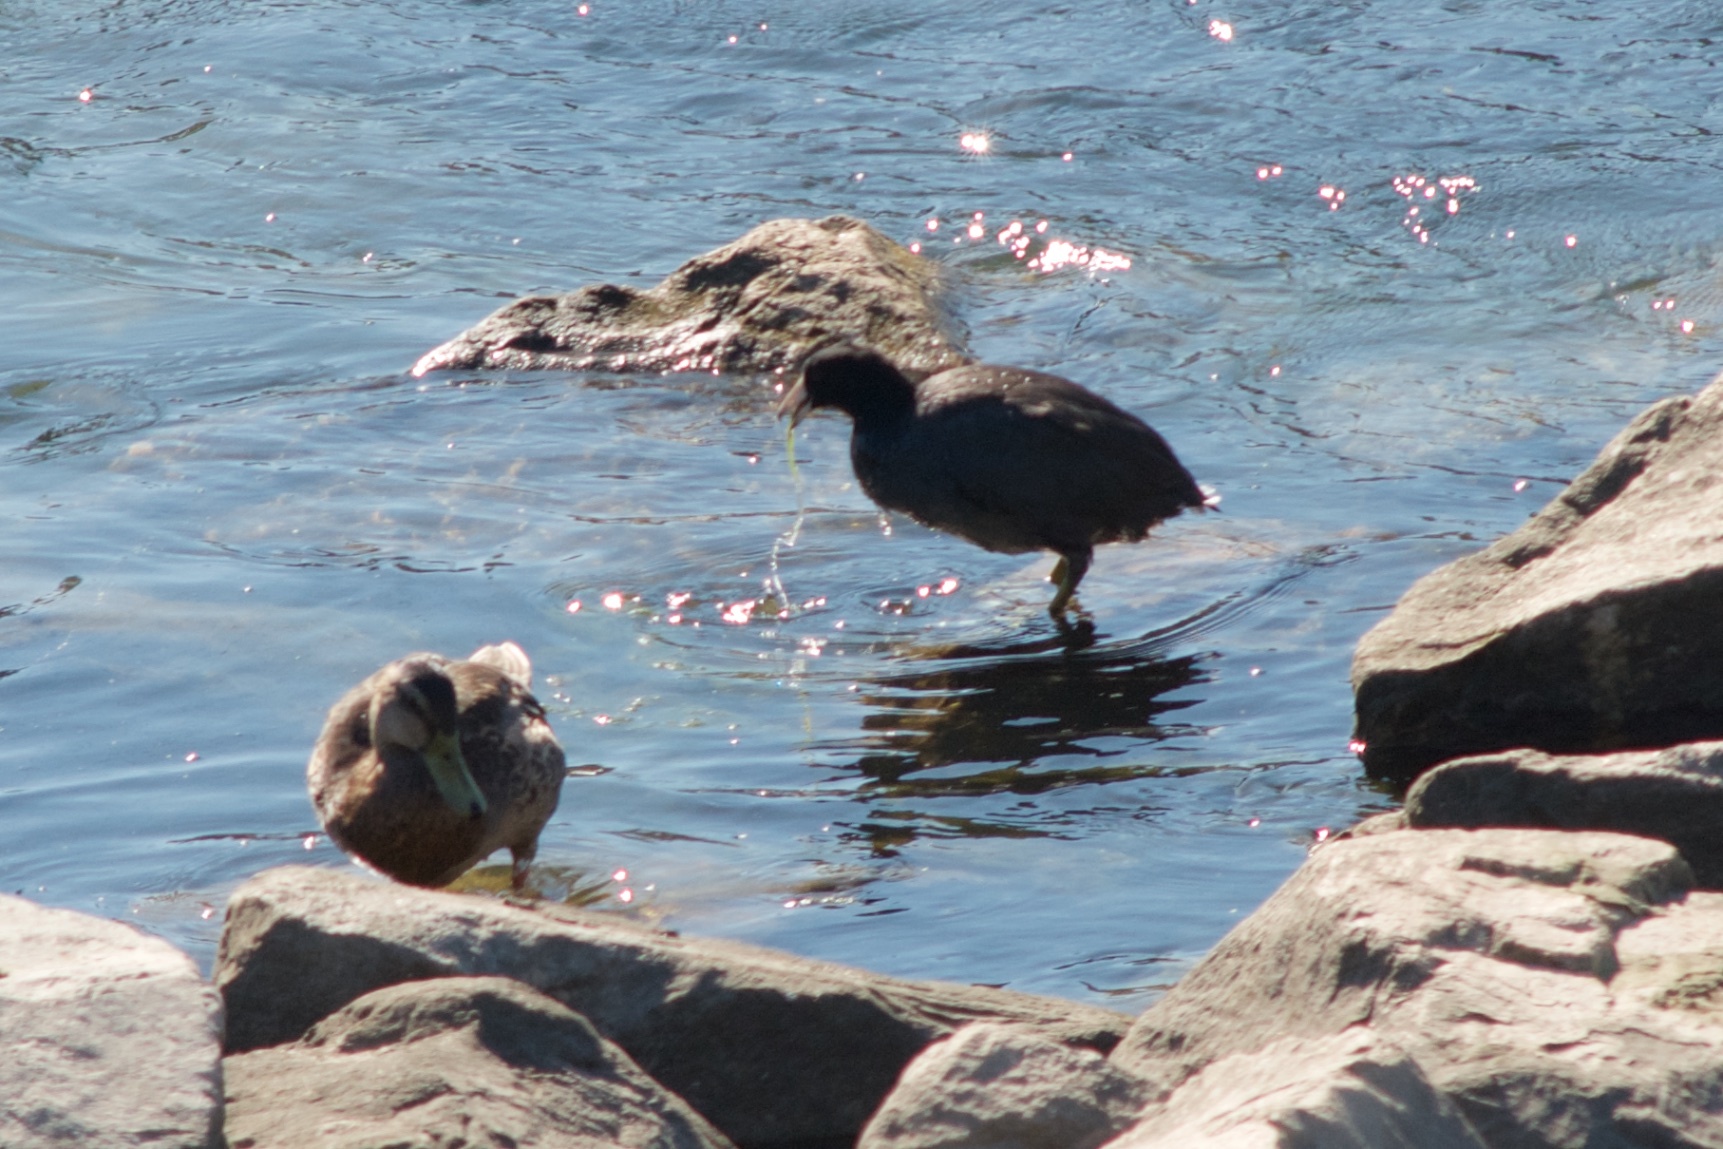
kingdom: Animalia
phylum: Chordata
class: Aves
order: Gruiformes
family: Rallidae
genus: Fulica
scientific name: Fulica americana
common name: American coot
